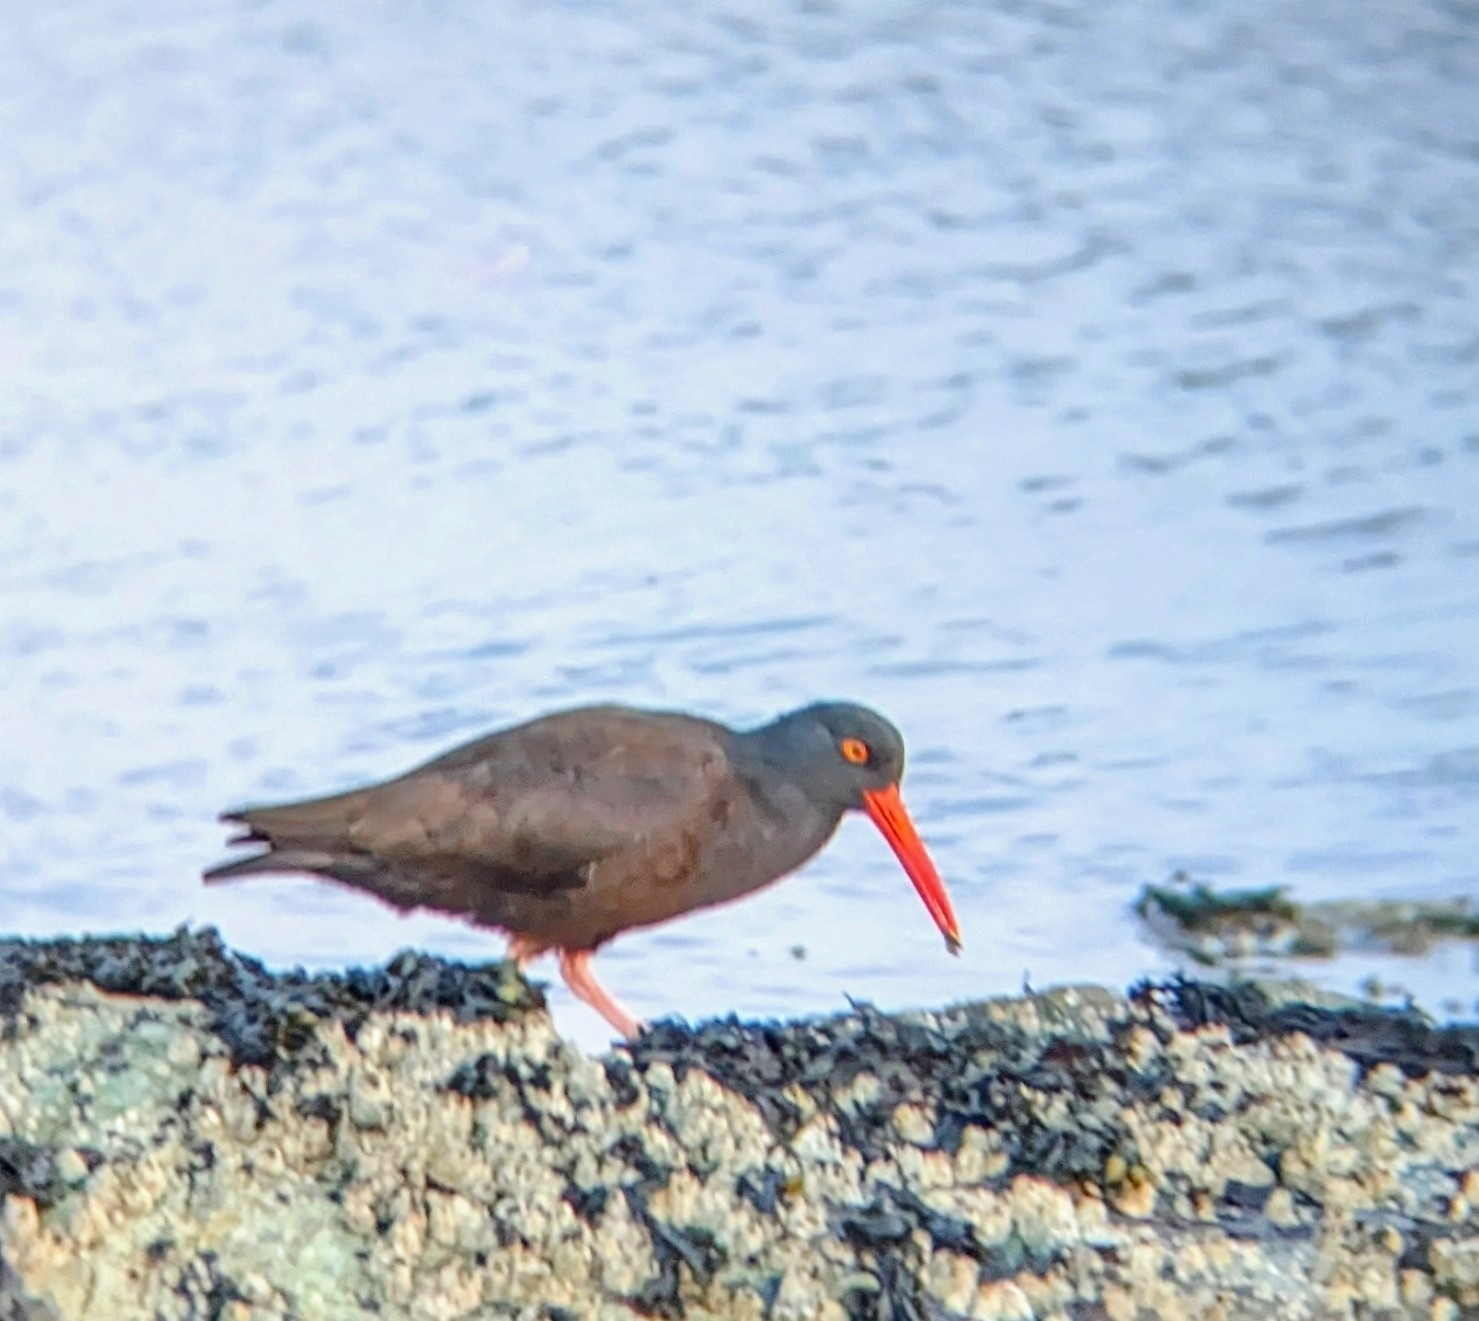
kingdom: Animalia
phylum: Chordata
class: Aves
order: Charadriiformes
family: Haematopodidae
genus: Haematopus
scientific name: Haematopus bachmani
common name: Black oystercatcher
